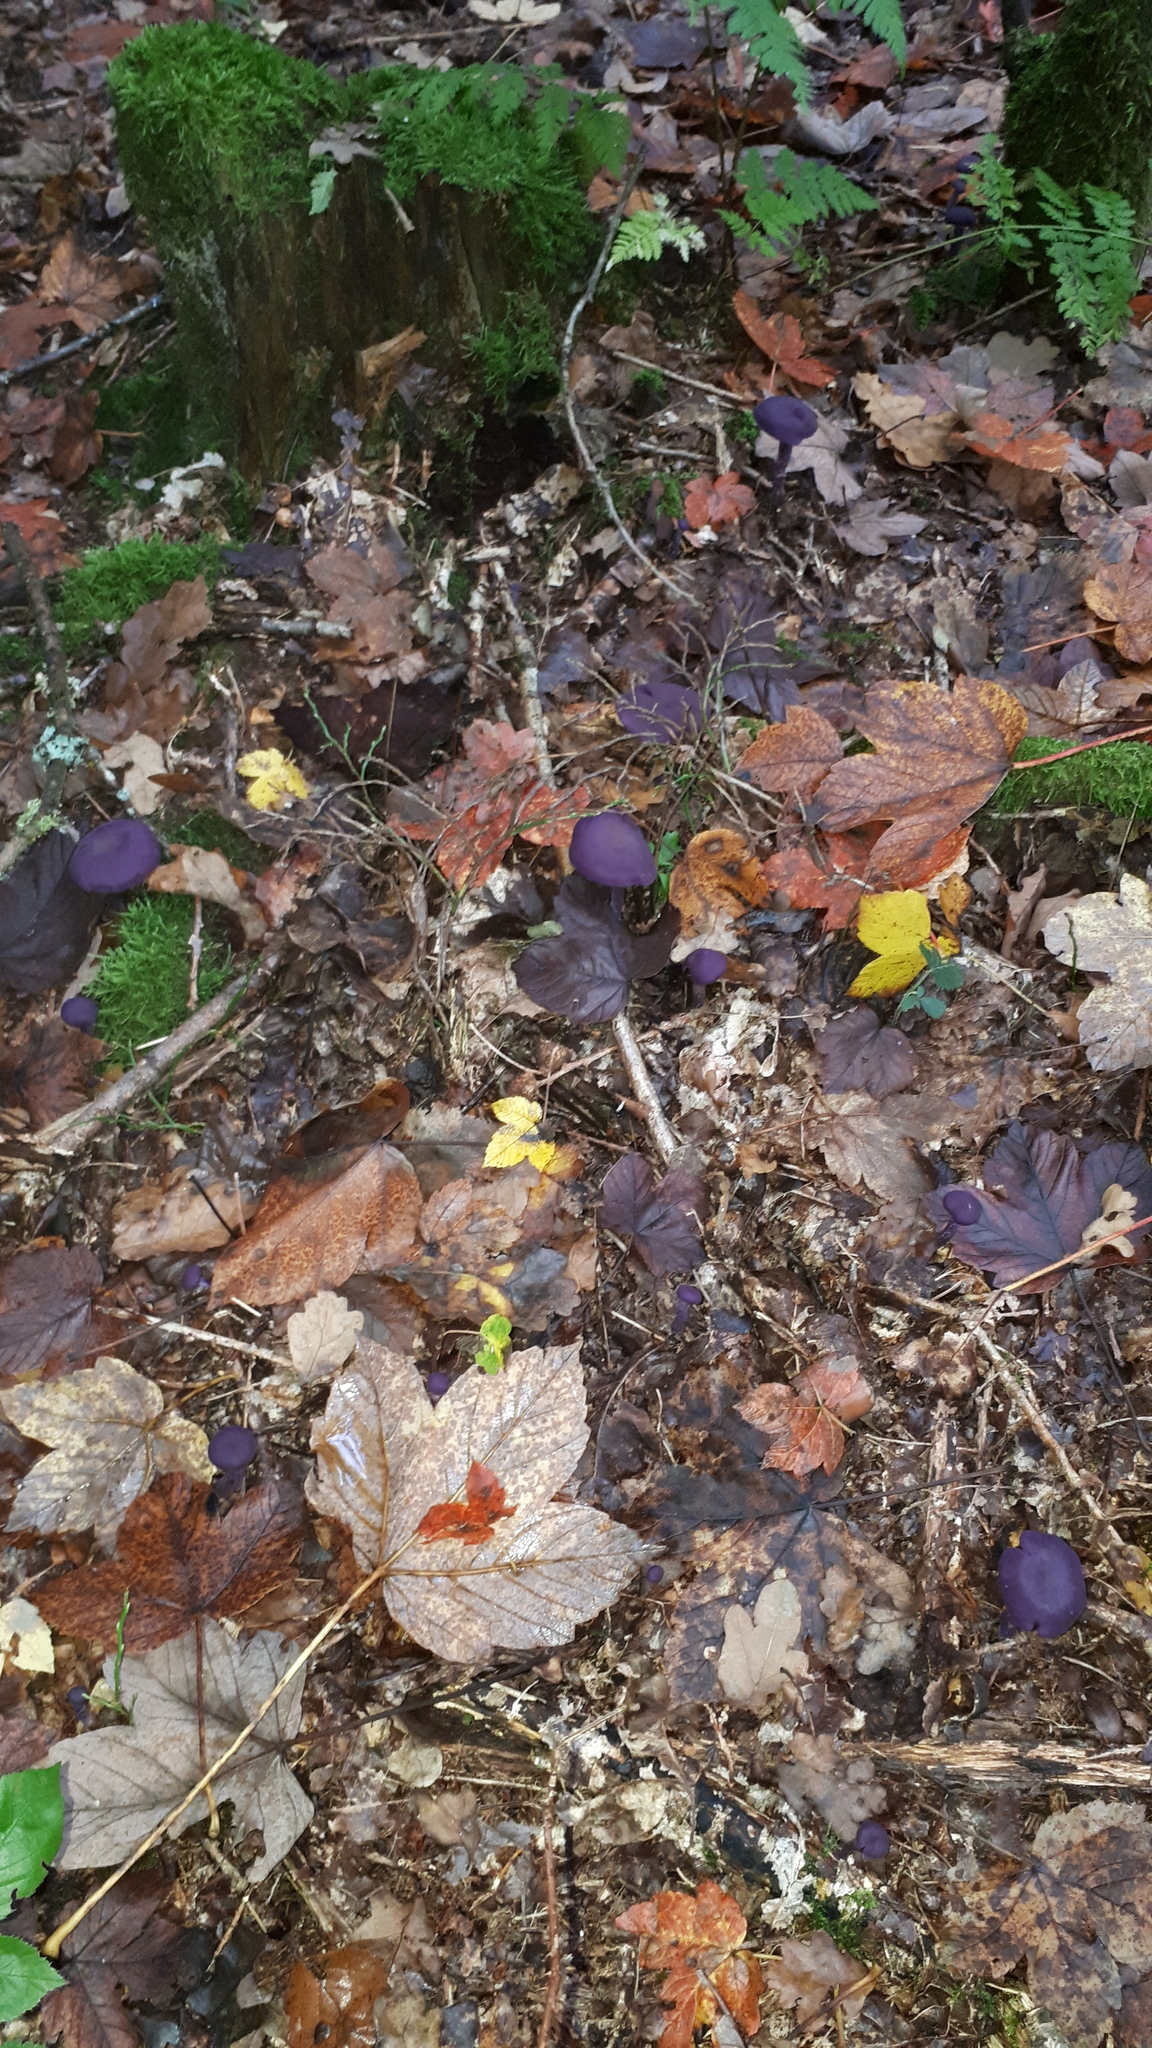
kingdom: Fungi
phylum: Basidiomycota
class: Agaricomycetes
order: Agaricales
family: Hydnangiaceae
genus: Laccaria
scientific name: Laccaria amethystina
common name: Amethyst deceiver
